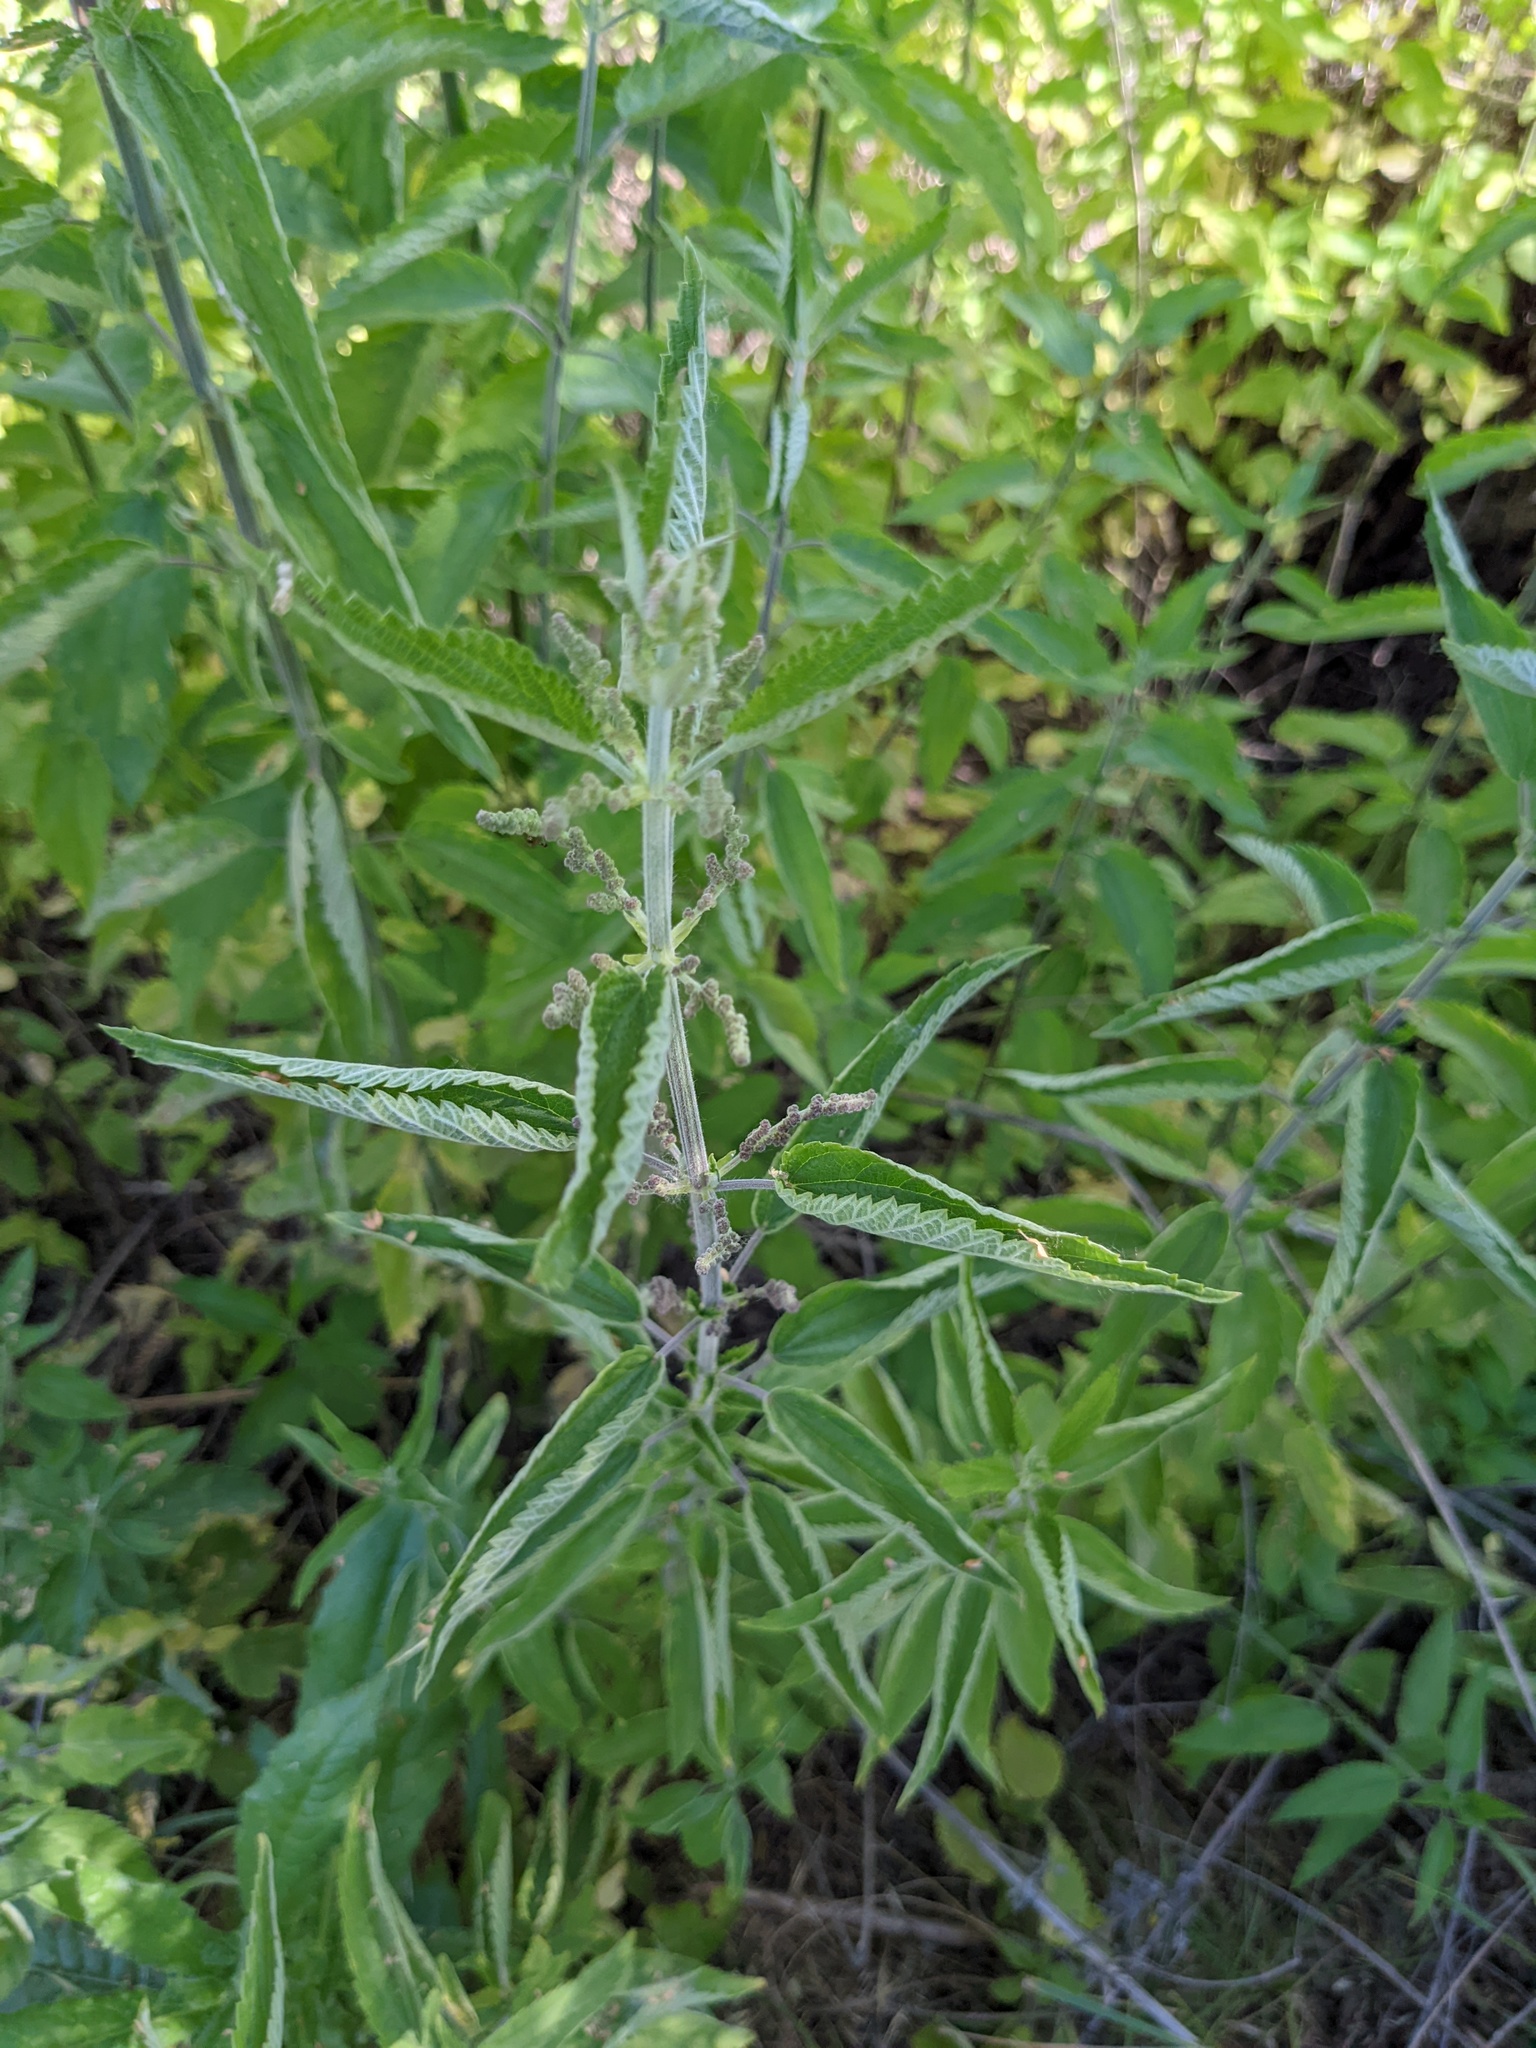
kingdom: Plantae
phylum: Tracheophyta
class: Magnoliopsida
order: Rosales
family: Urticaceae
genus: Urtica
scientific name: Urtica gracilis
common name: Slender stinging nettle
